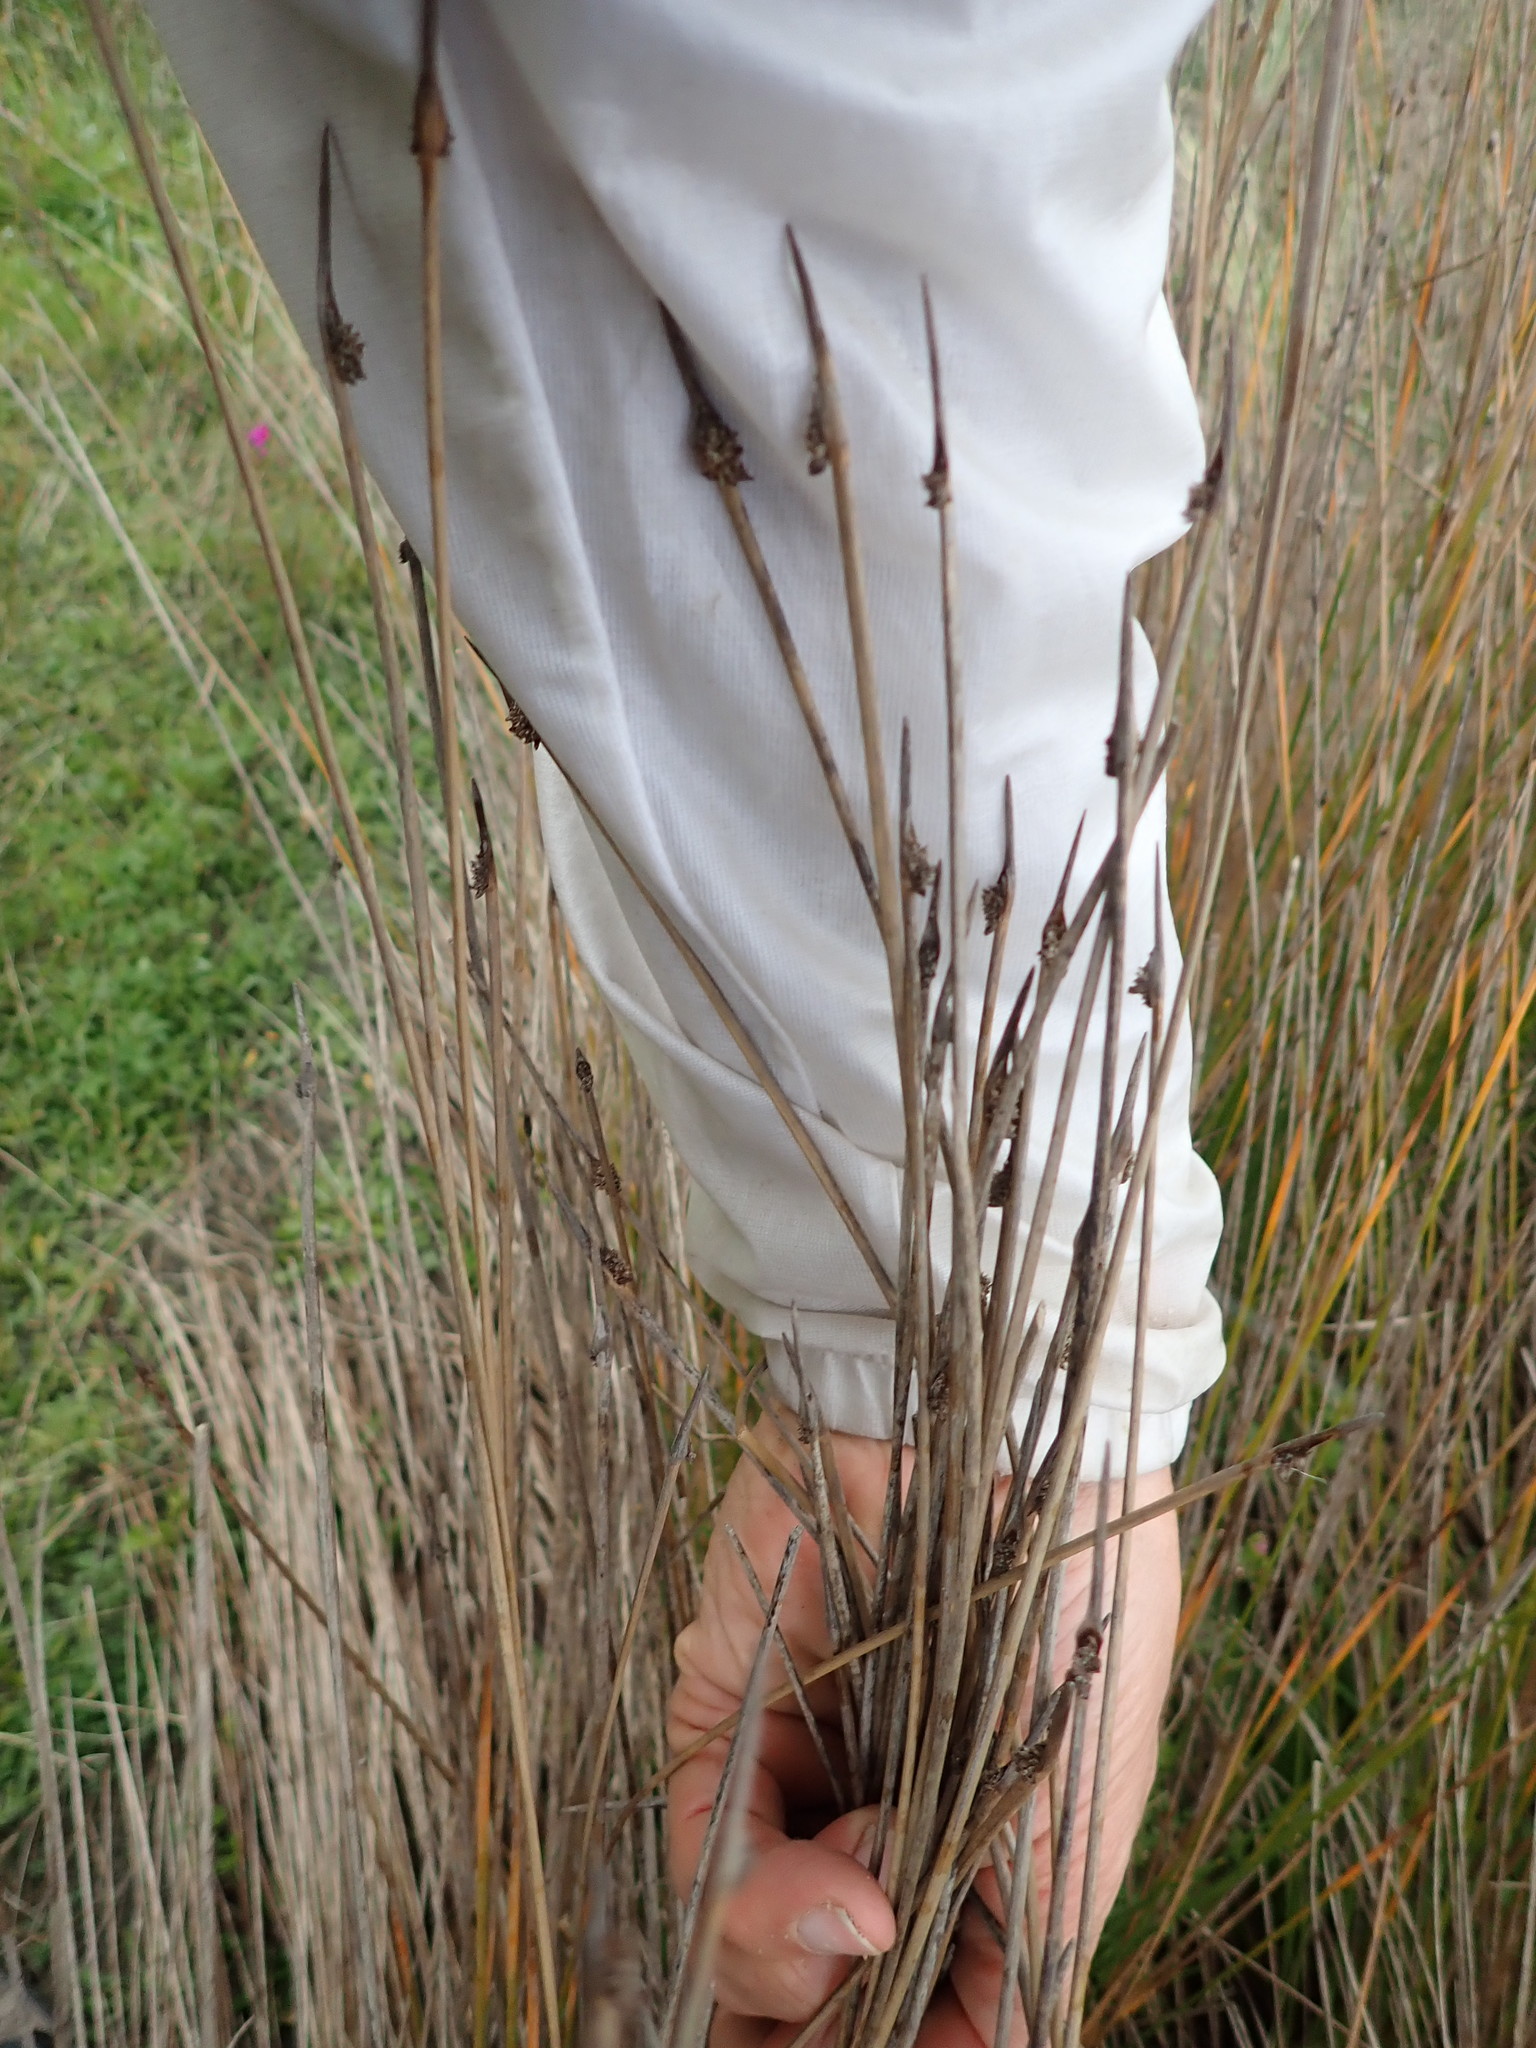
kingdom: Plantae
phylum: Tracheophyta
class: Liliopsida
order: Poales
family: Cyperaceae
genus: Ficinia
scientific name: Ficinia nodosa
